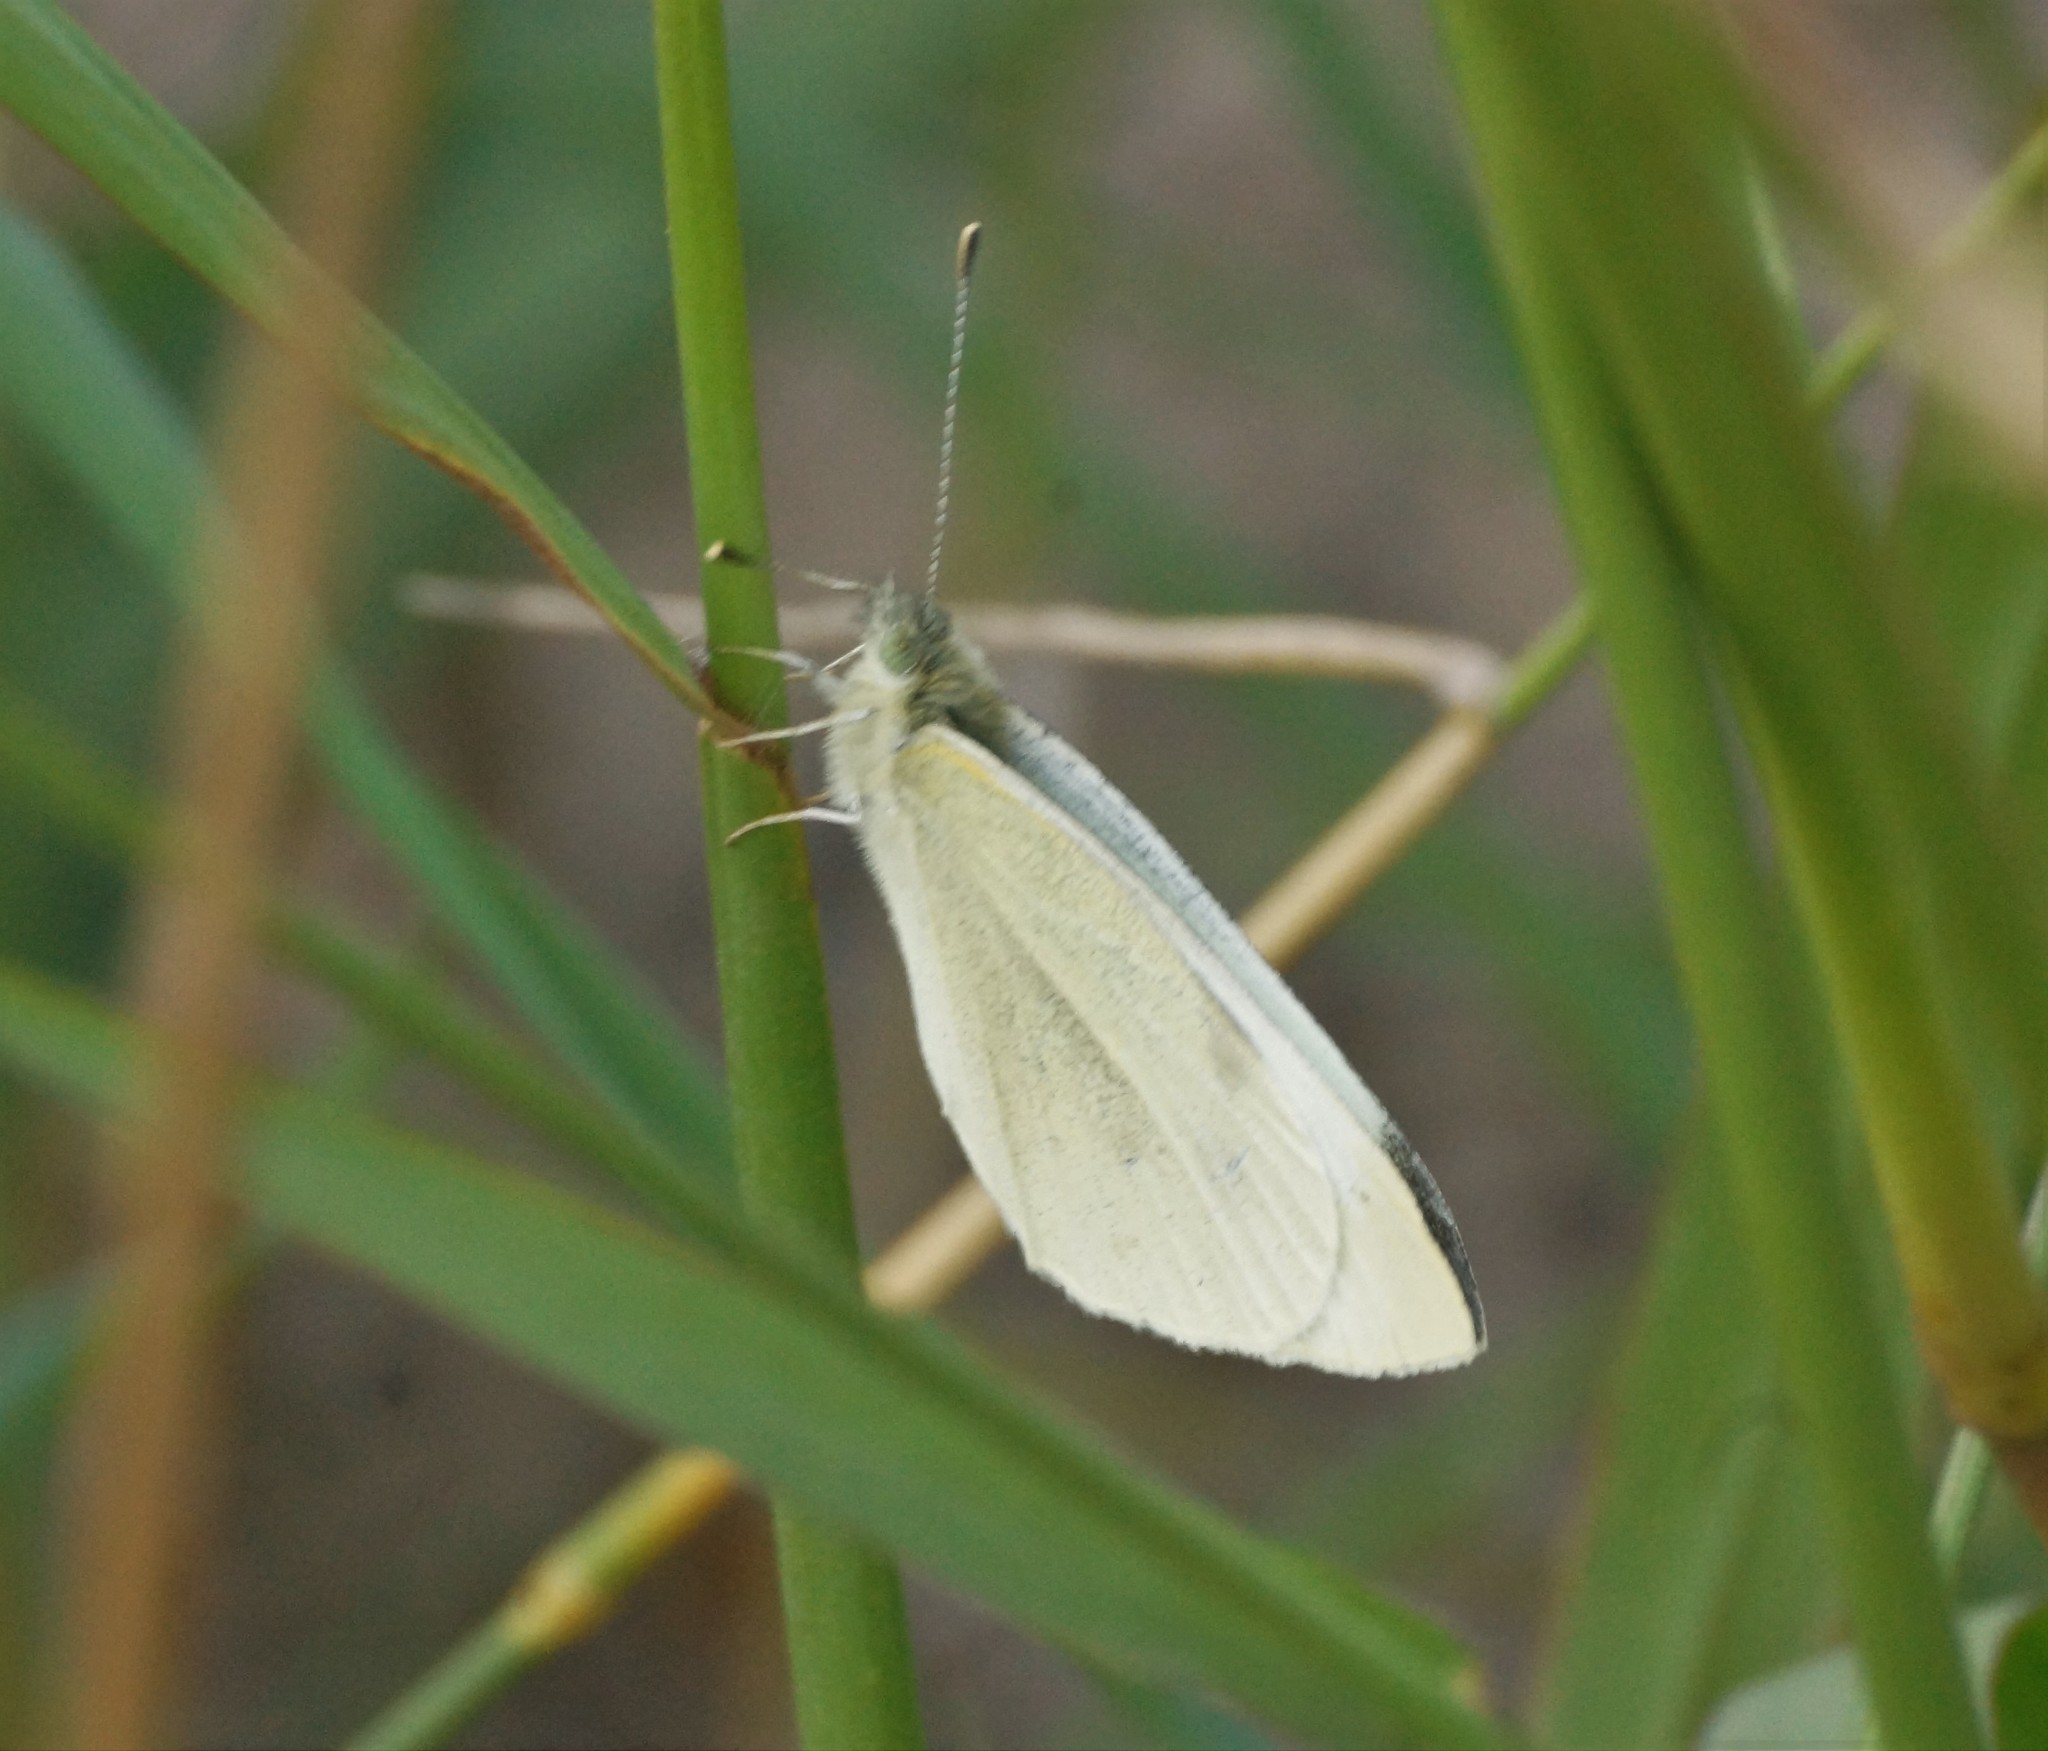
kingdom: Animalia
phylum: Arthropoda
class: Insecta
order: Lepidoptera
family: Pieridae
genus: Pieris
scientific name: Pieris rapae
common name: Small white
